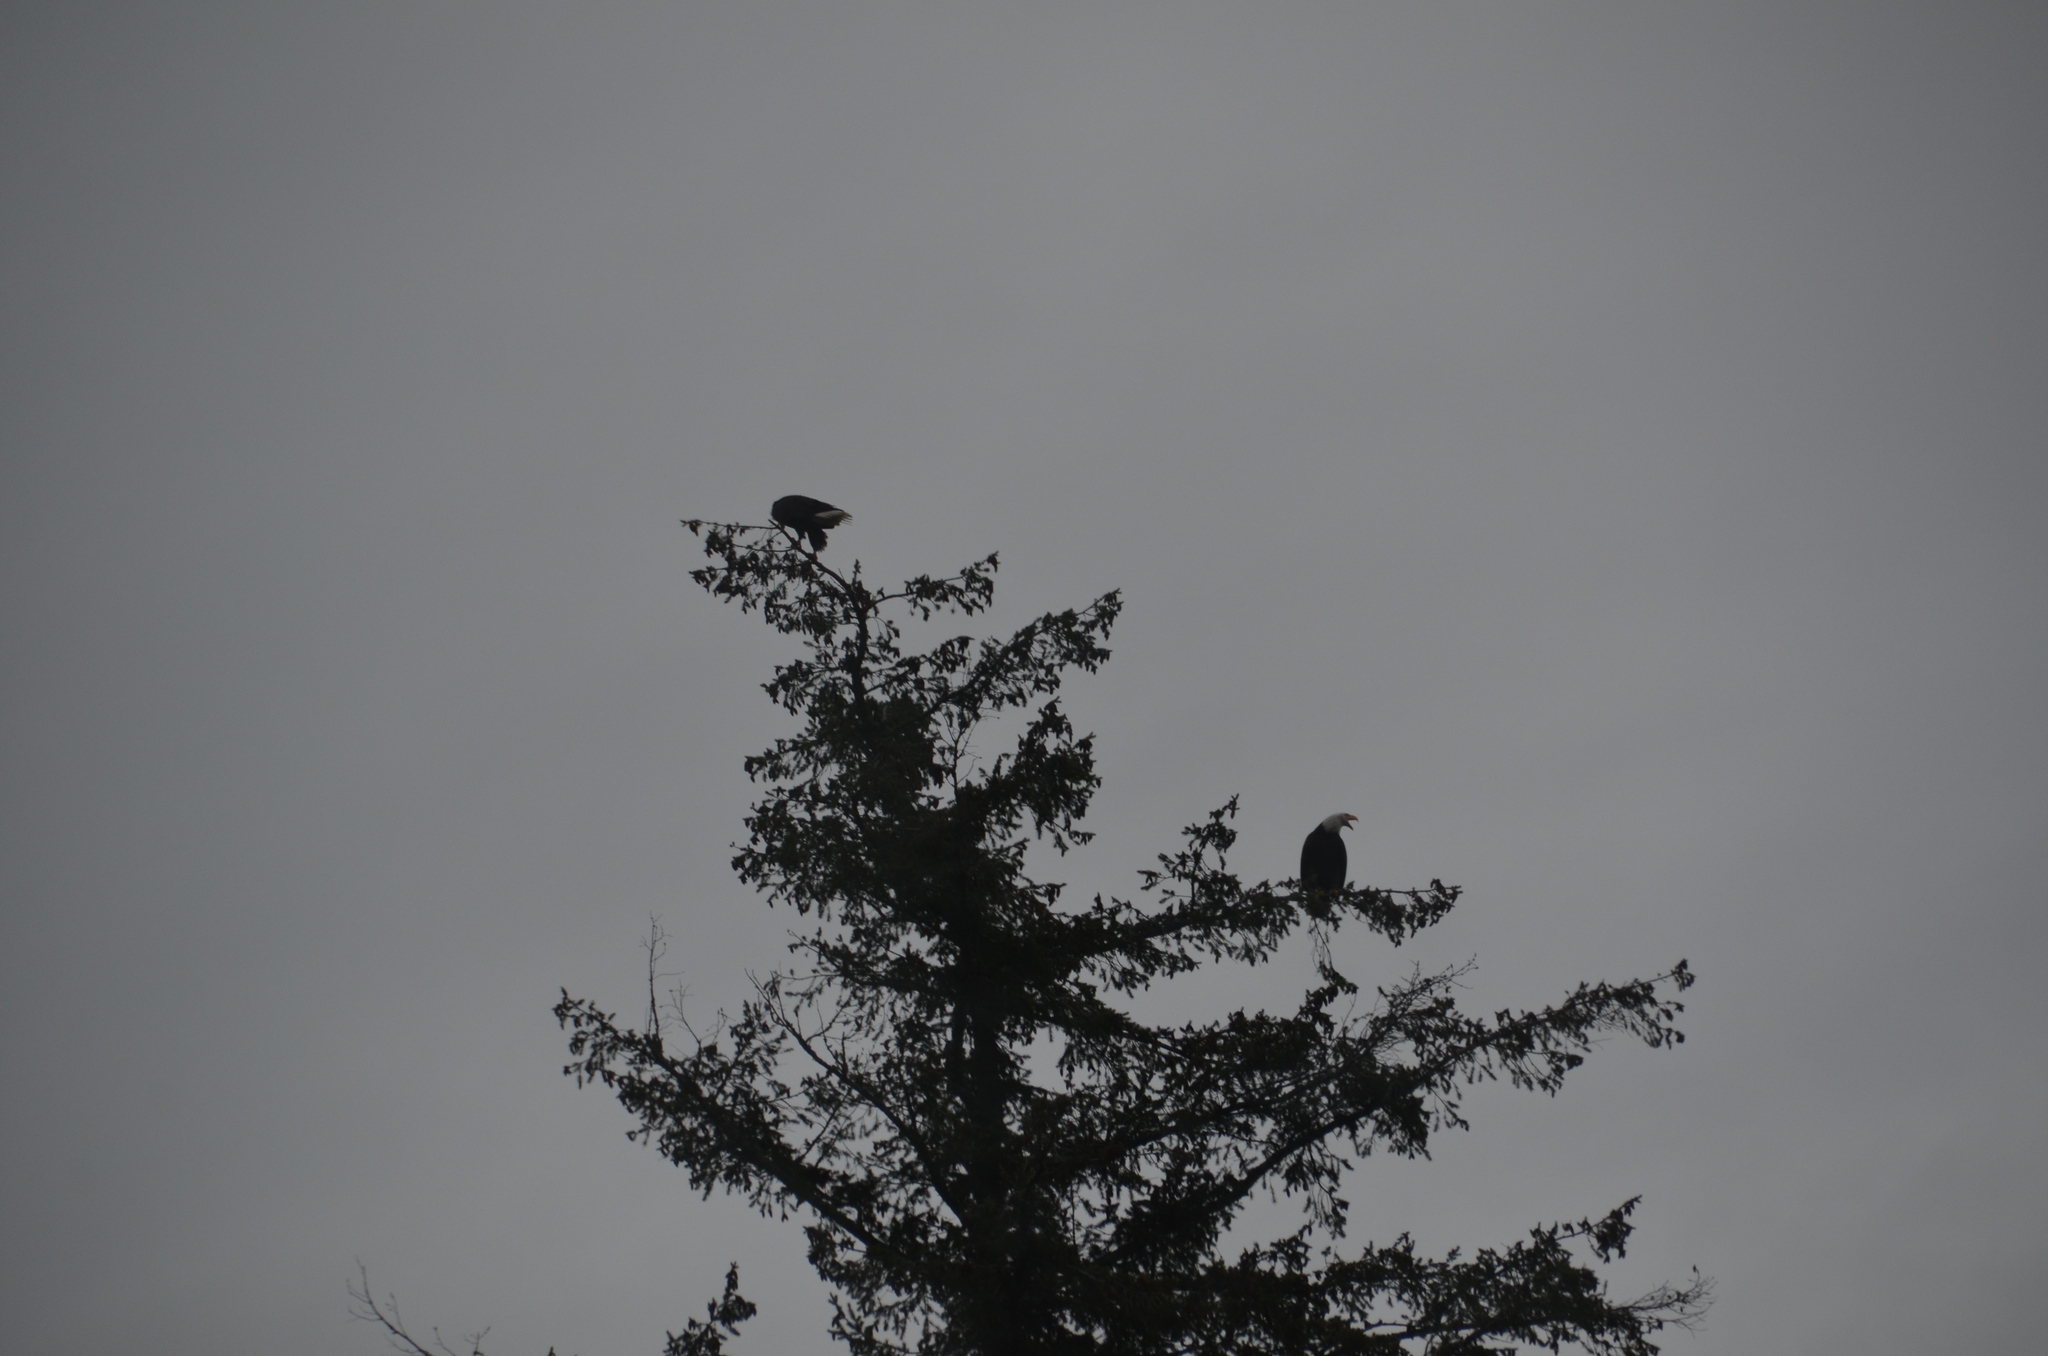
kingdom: Animalia
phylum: Chordata
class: Aves
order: Accipitriformes
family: Accipitridae
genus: Haliaeetus
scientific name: Haliaeetus leucocephalus
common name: Bald eagle
